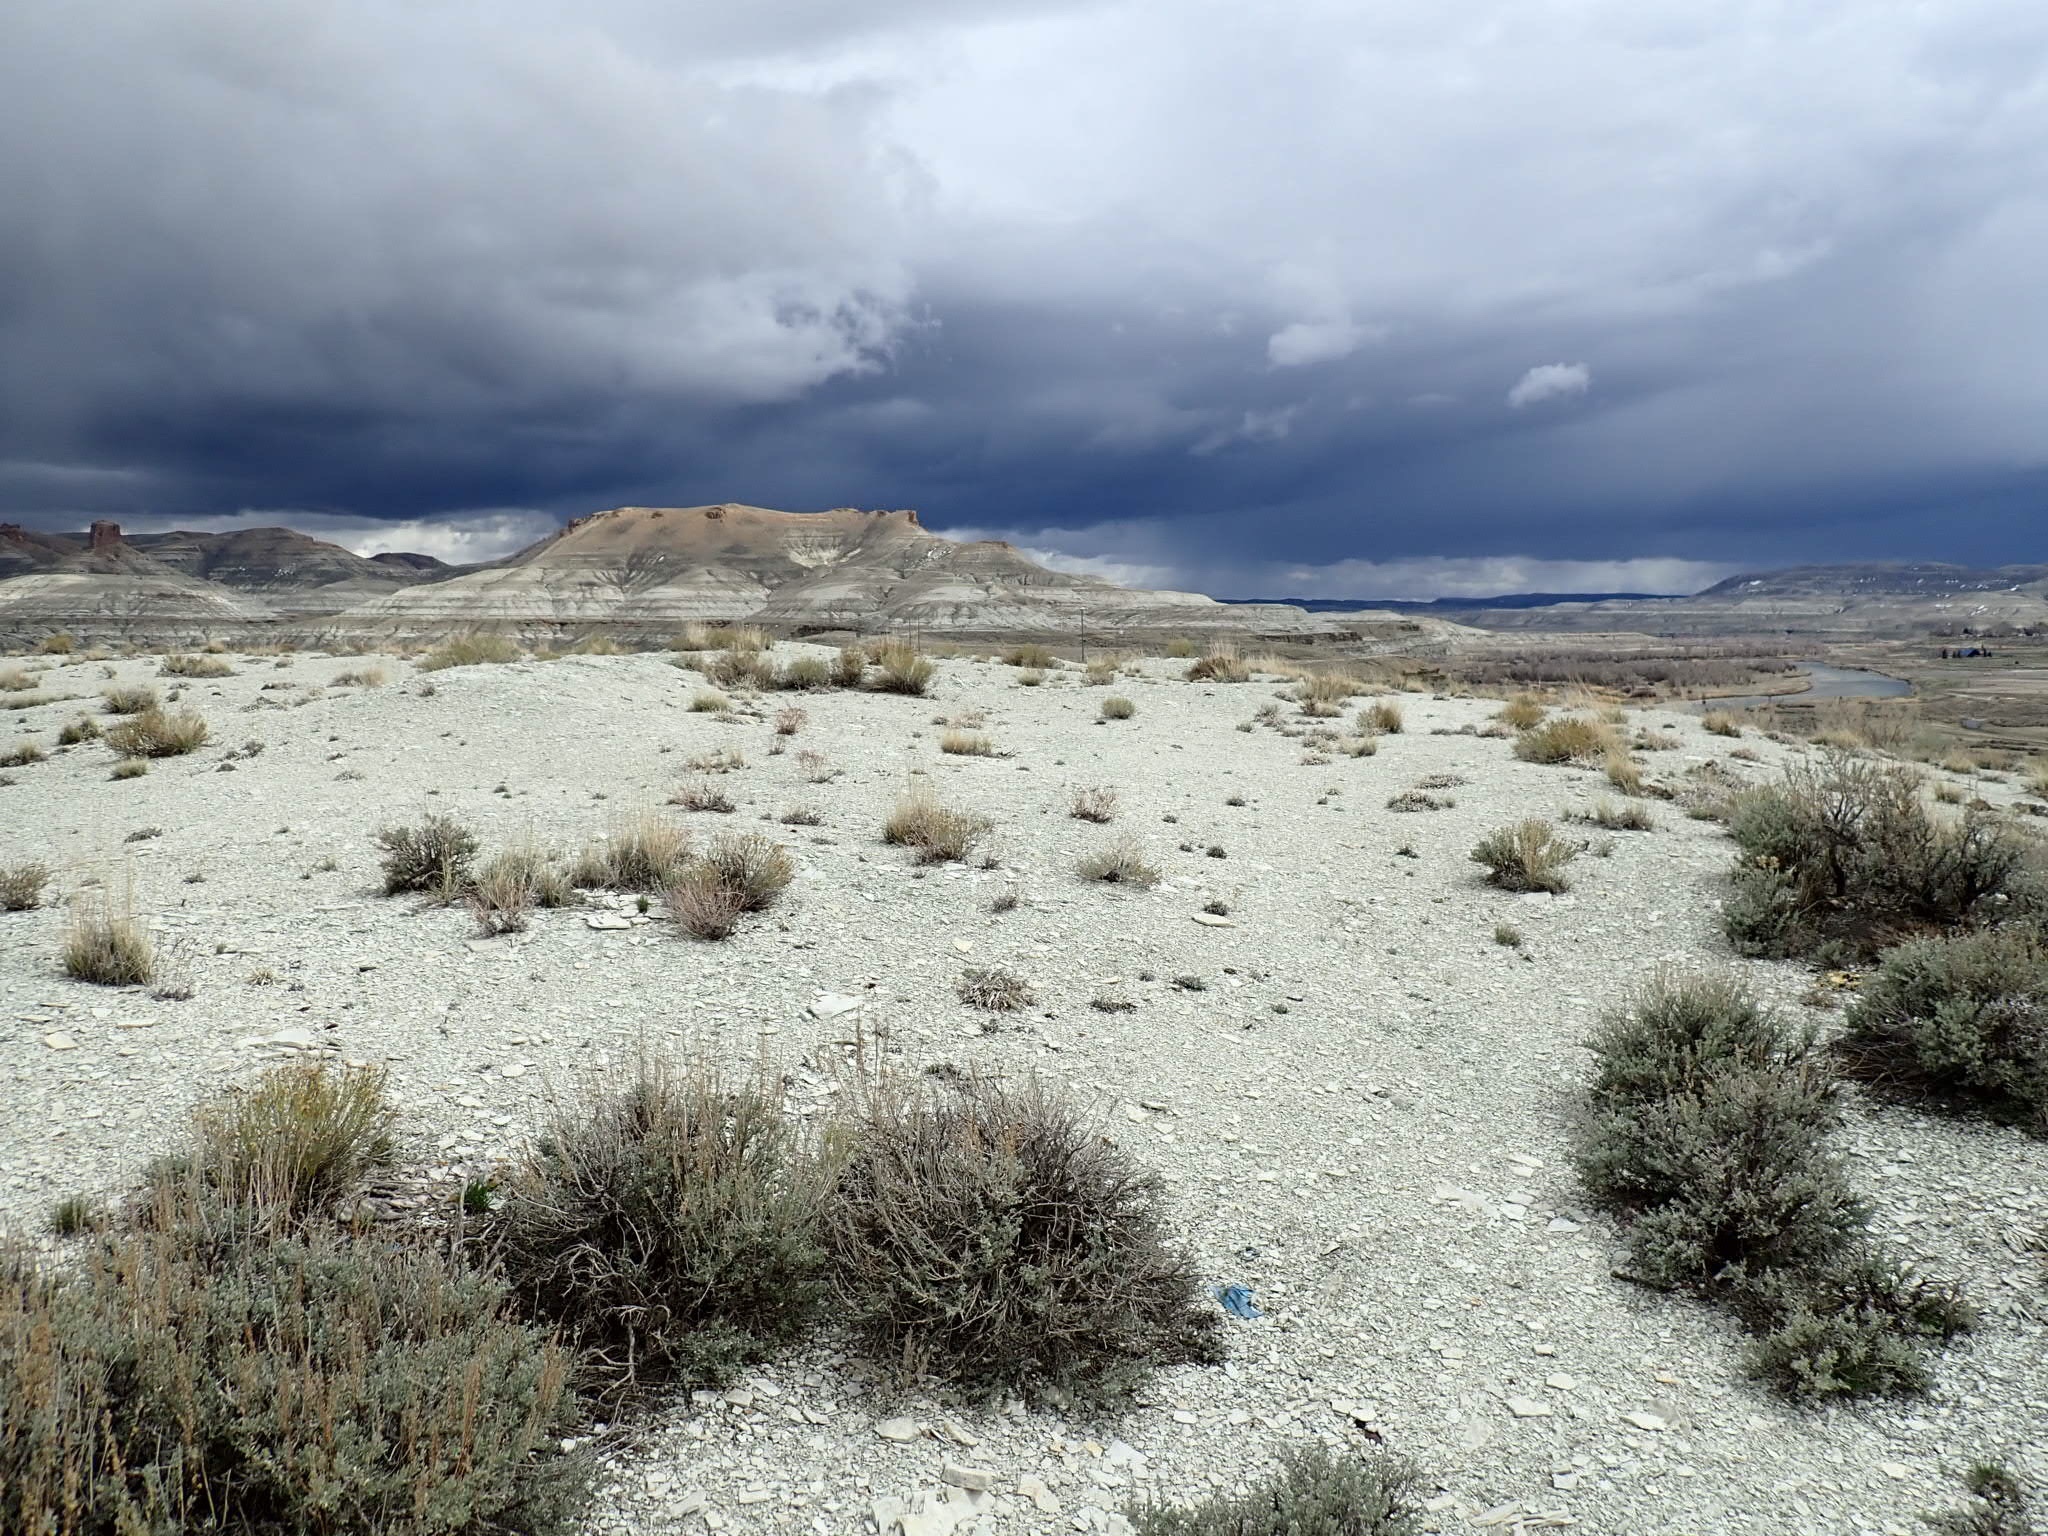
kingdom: Plantae
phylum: Tracheophyta
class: Magnoliopsida
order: Asterales
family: Asteraceae
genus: Artemisia
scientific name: Artemisia arbuscula
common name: Sagebrush
